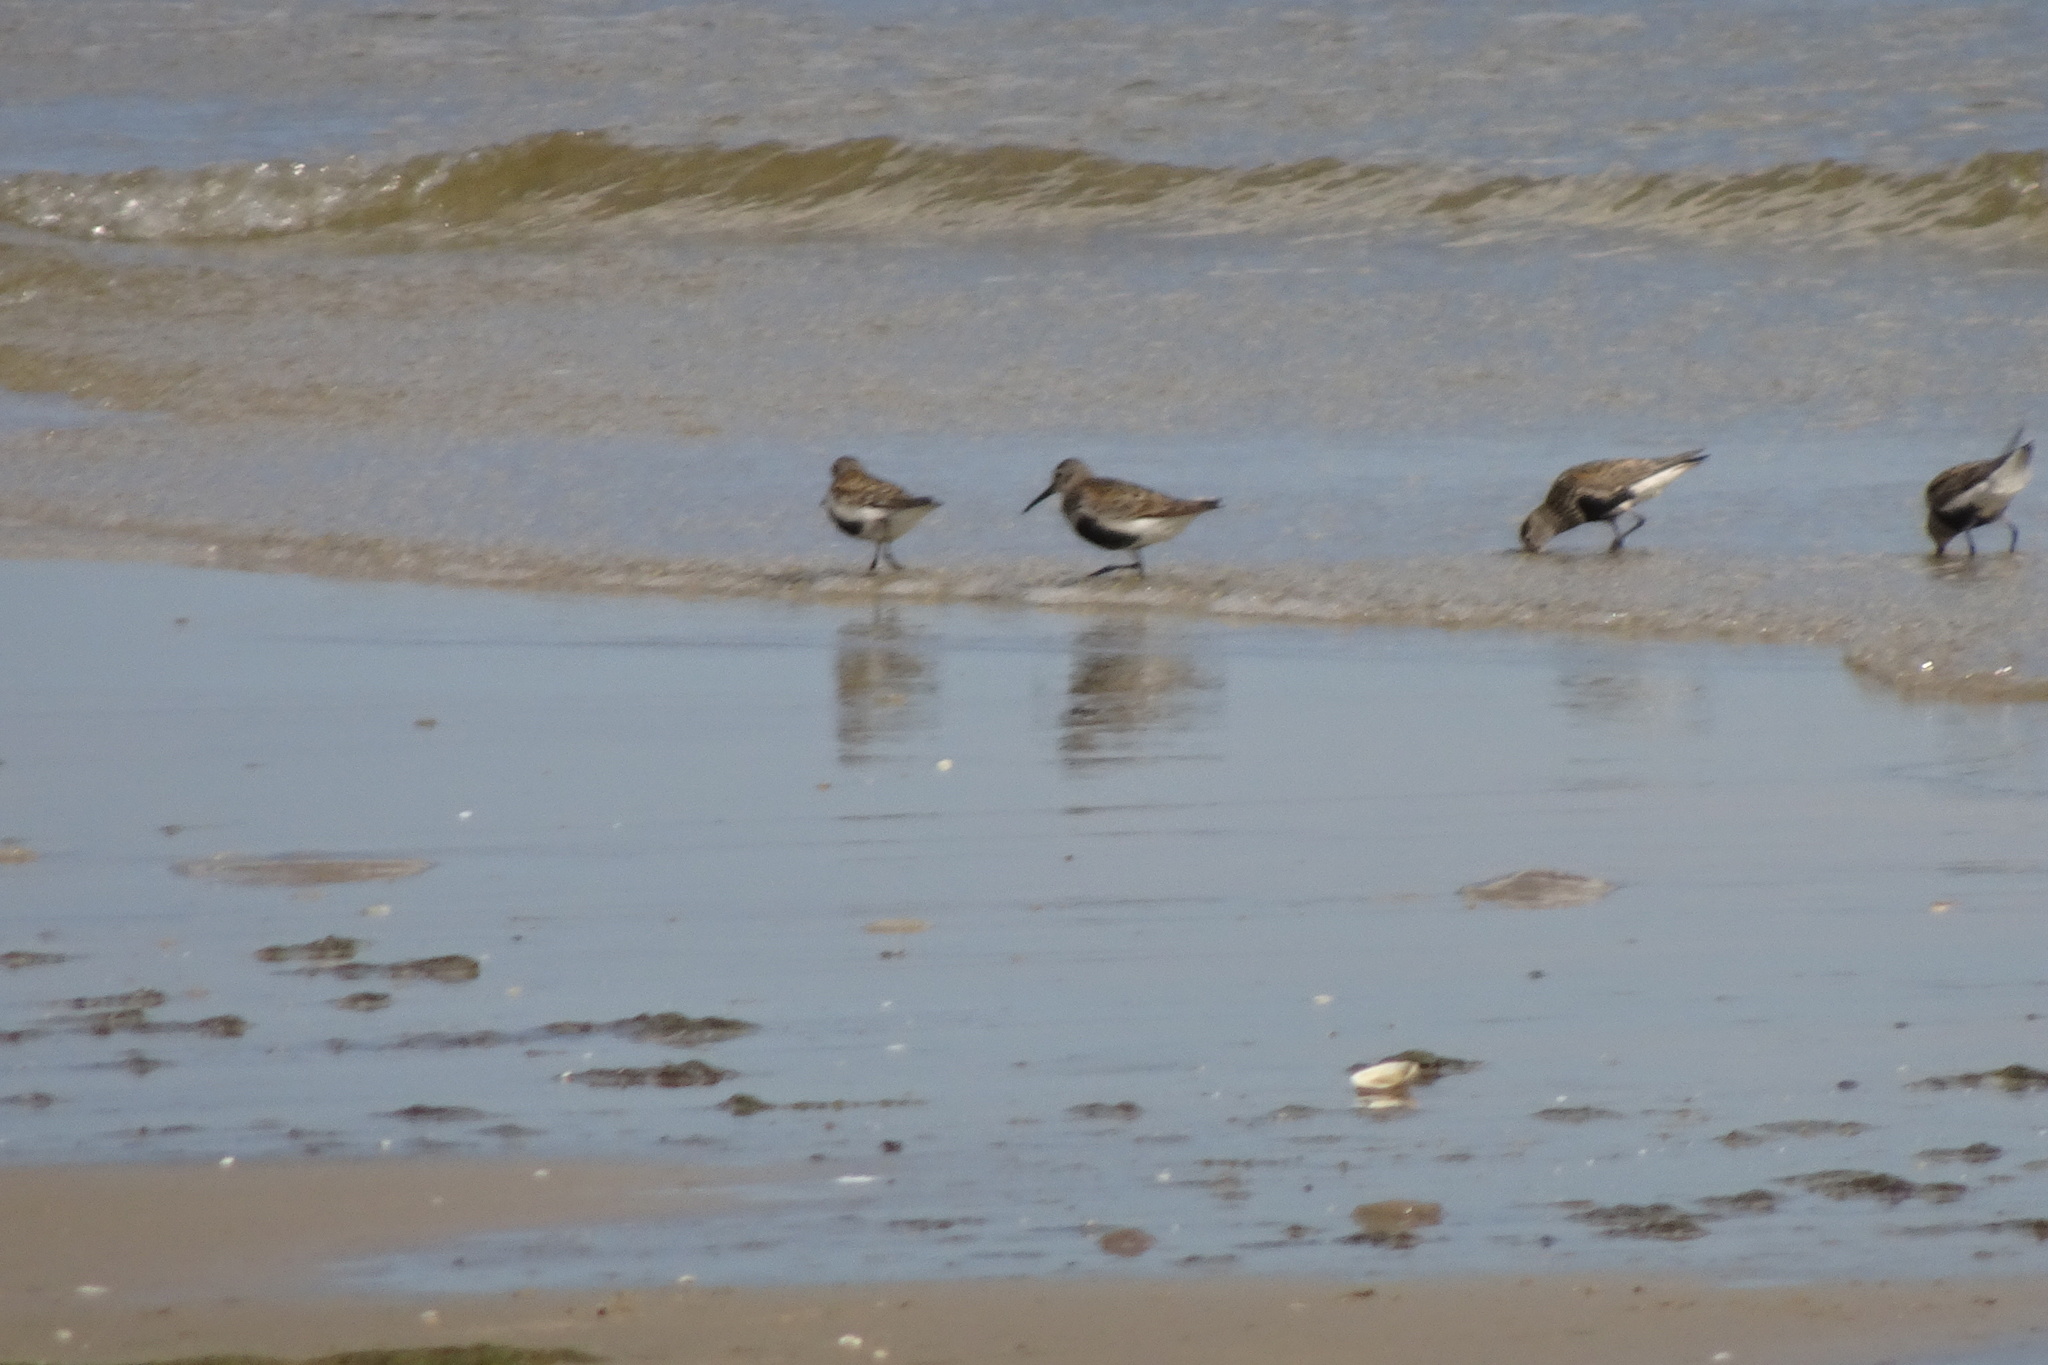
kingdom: Animalia
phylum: Chordata
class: Aves
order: Charadriiformes
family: Scolopacidae
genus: Calidris
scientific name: Calidris alpina
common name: Dunlin
